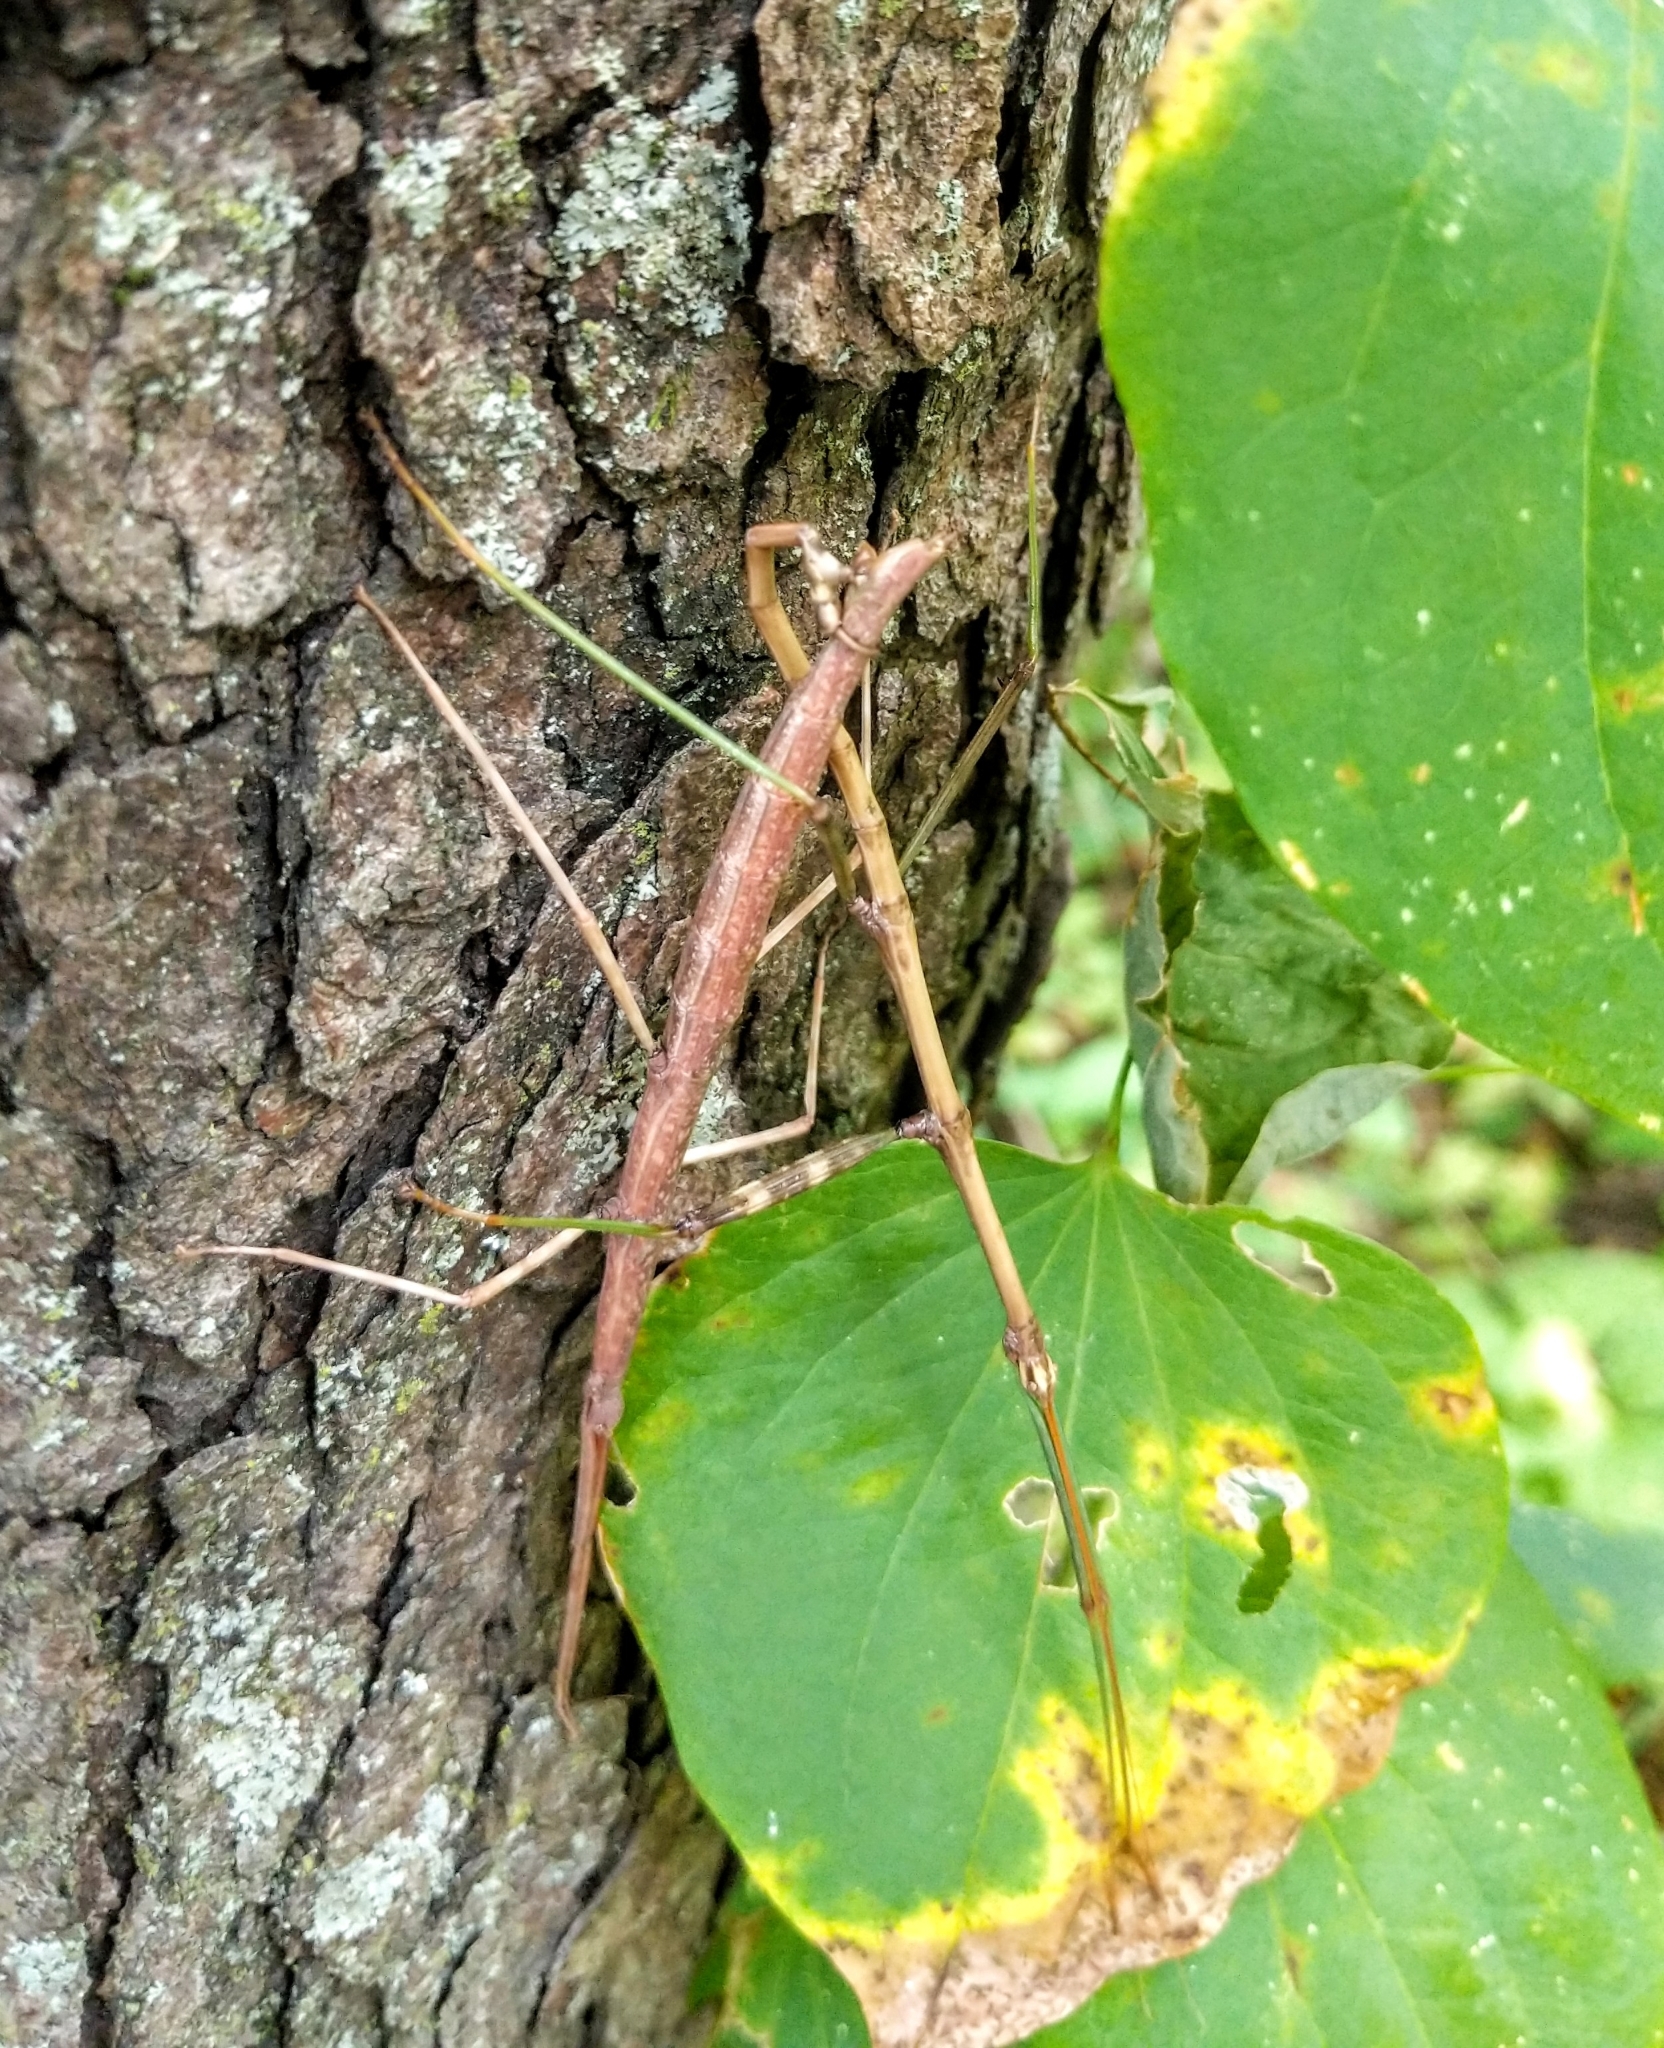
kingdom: Animalia
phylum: Arthropoda
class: Insecta
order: Phasmida
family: Diapheromeridae
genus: Diapheromera
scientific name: Diapheromera femorata
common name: Common american walkingstick
